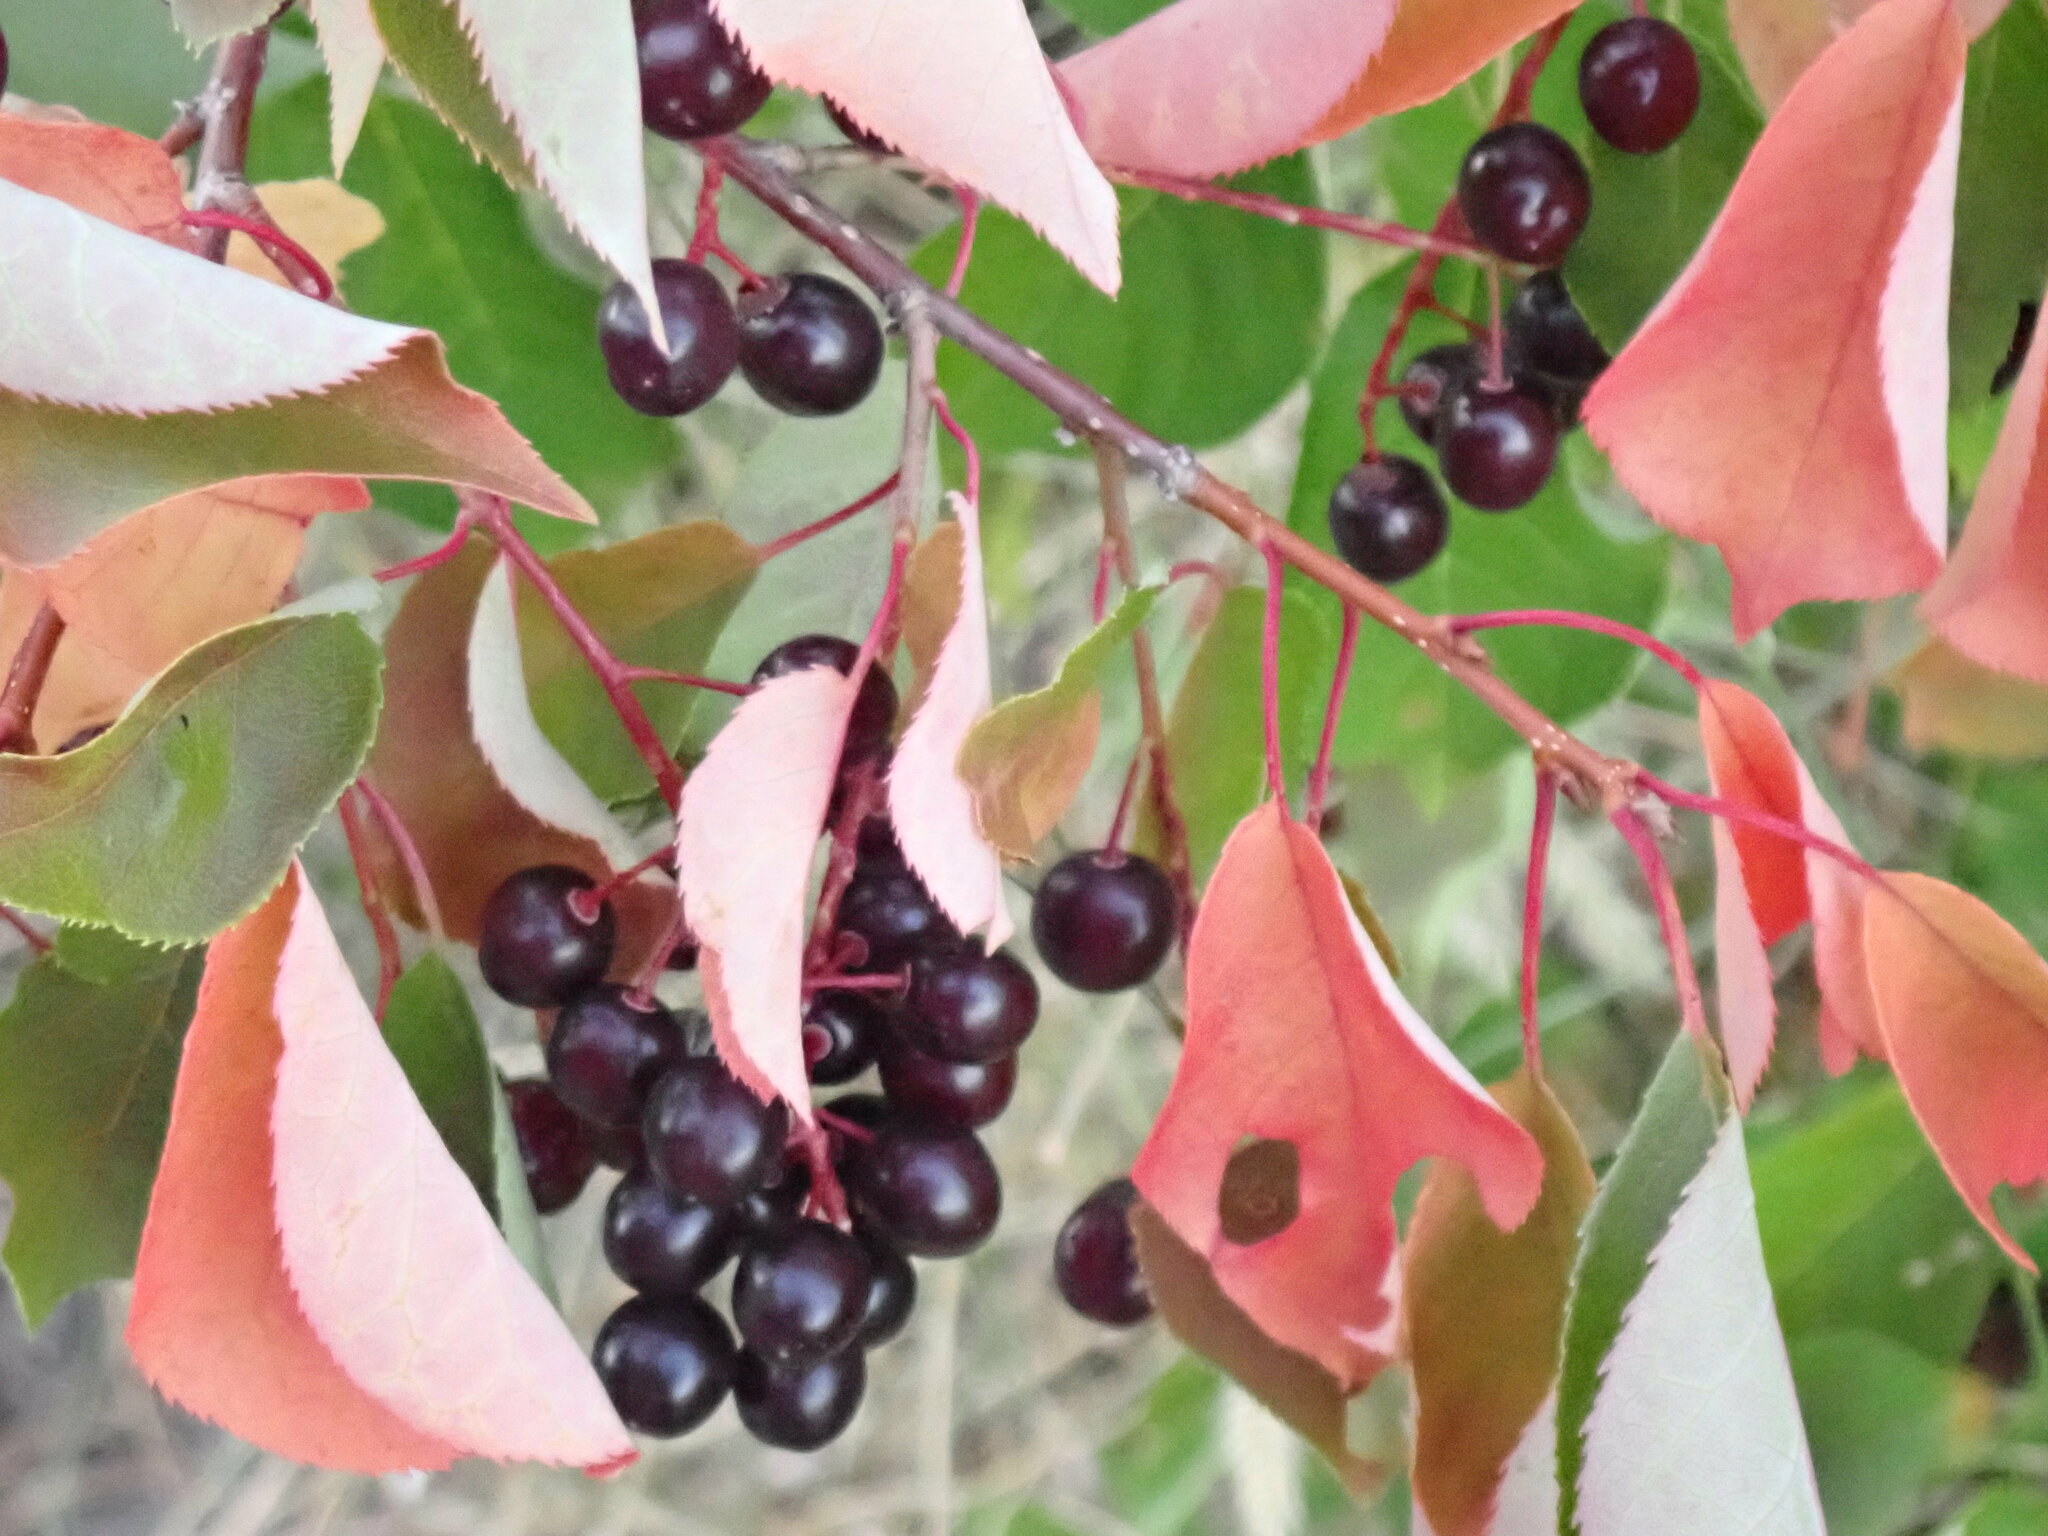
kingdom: Plantae
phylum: Tracheophyta
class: Magnoliopsida
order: Rosales
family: Rosaceae
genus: Prunus
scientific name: Prunus virginiana
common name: Chokecherry
